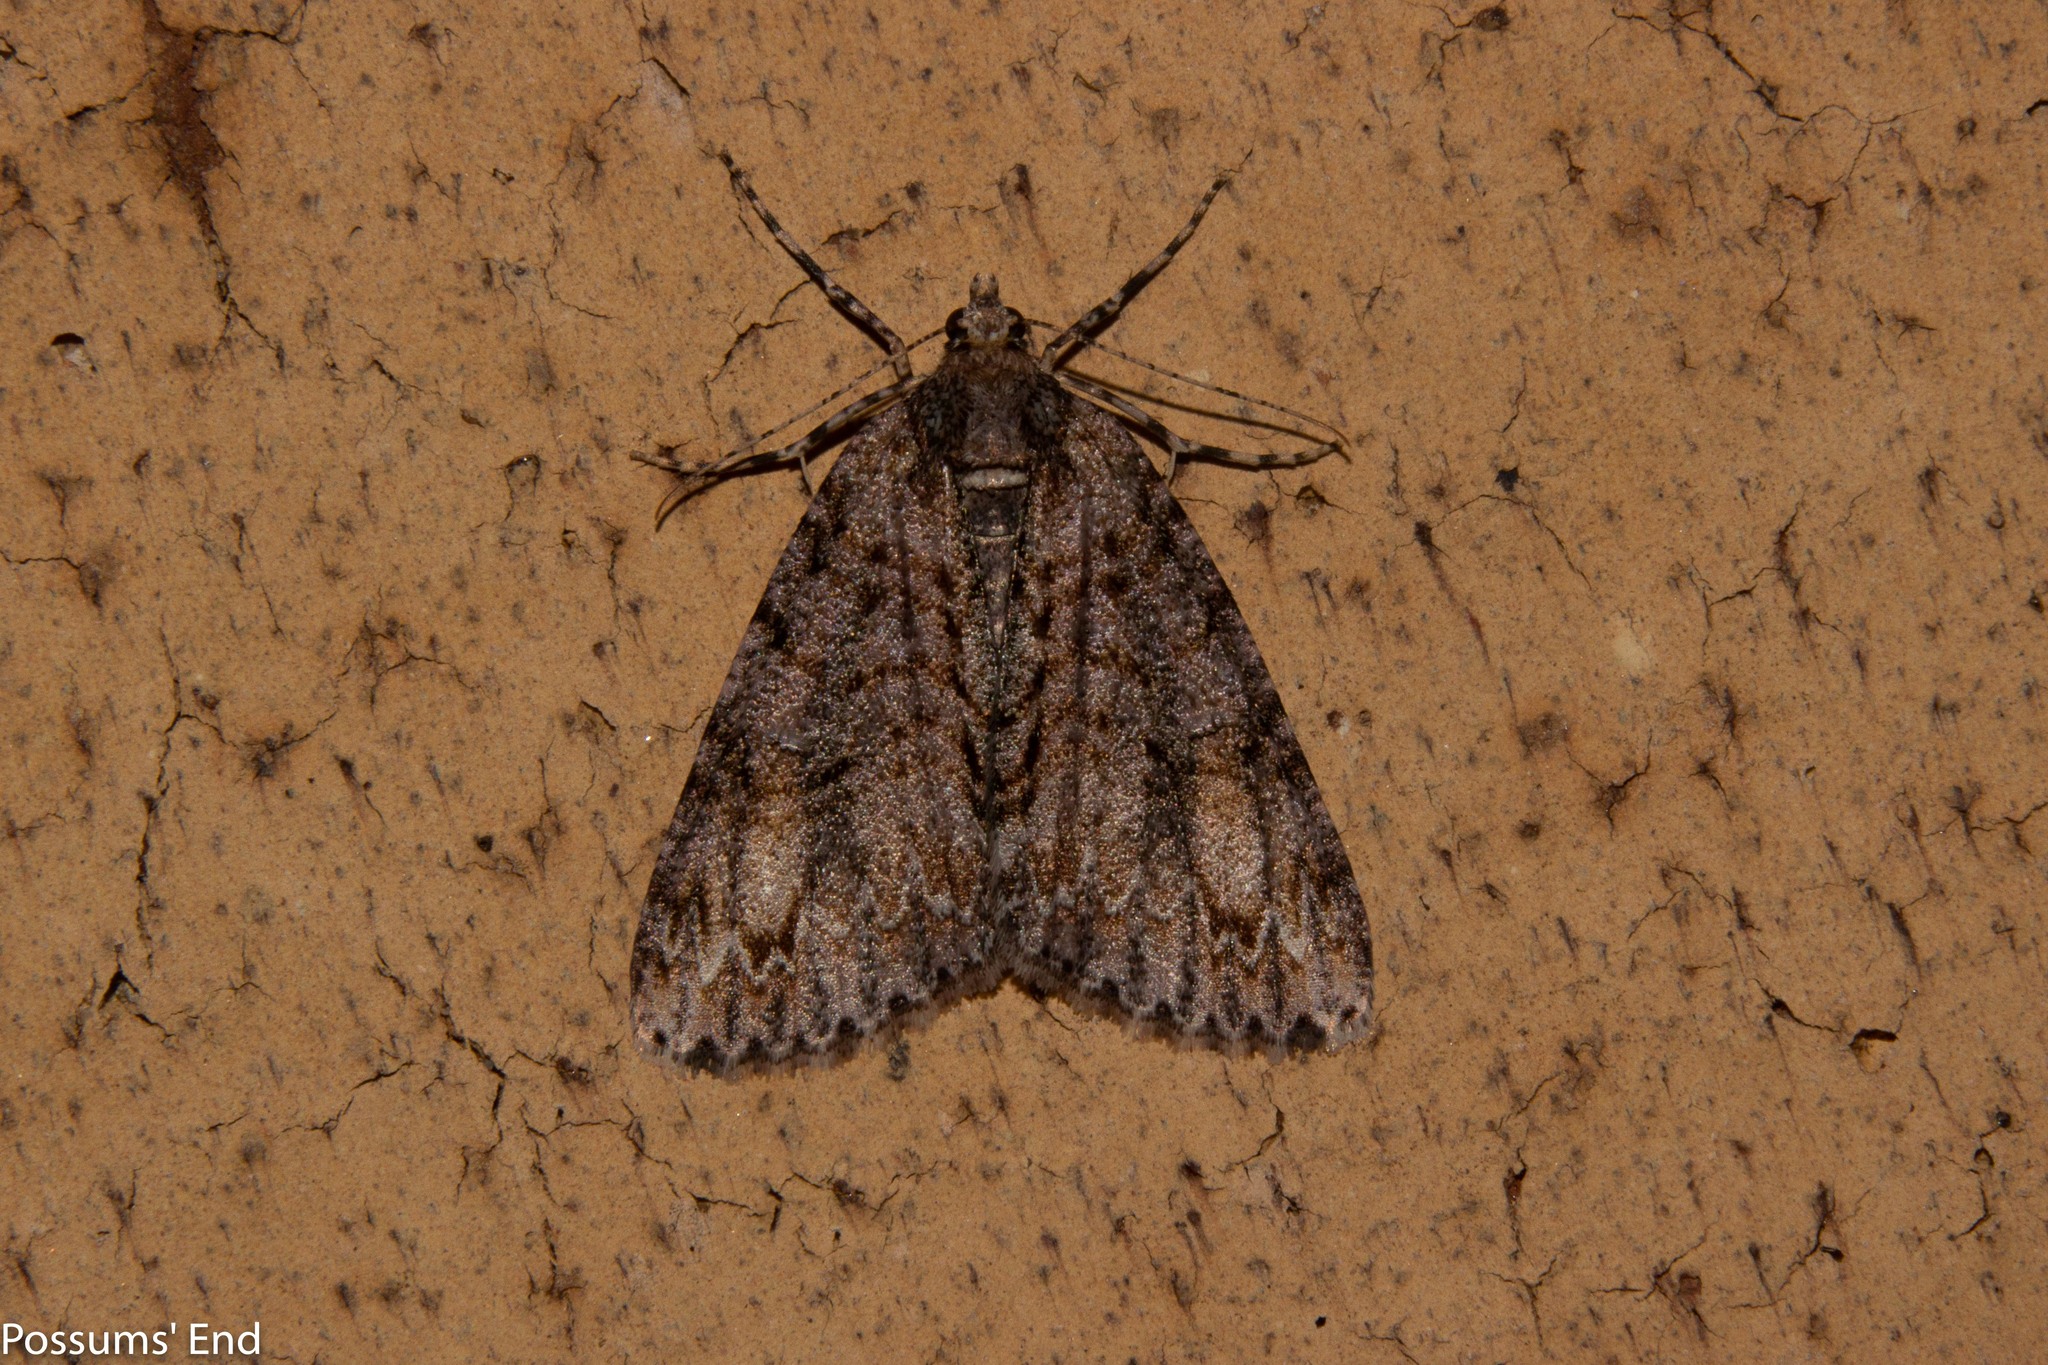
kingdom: Animalia
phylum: Arthropoda
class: Insecta
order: Lepidoptera
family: Geometridae
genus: Pseudocoremia
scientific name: Pseudocoremia suavis
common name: Common forest looper
